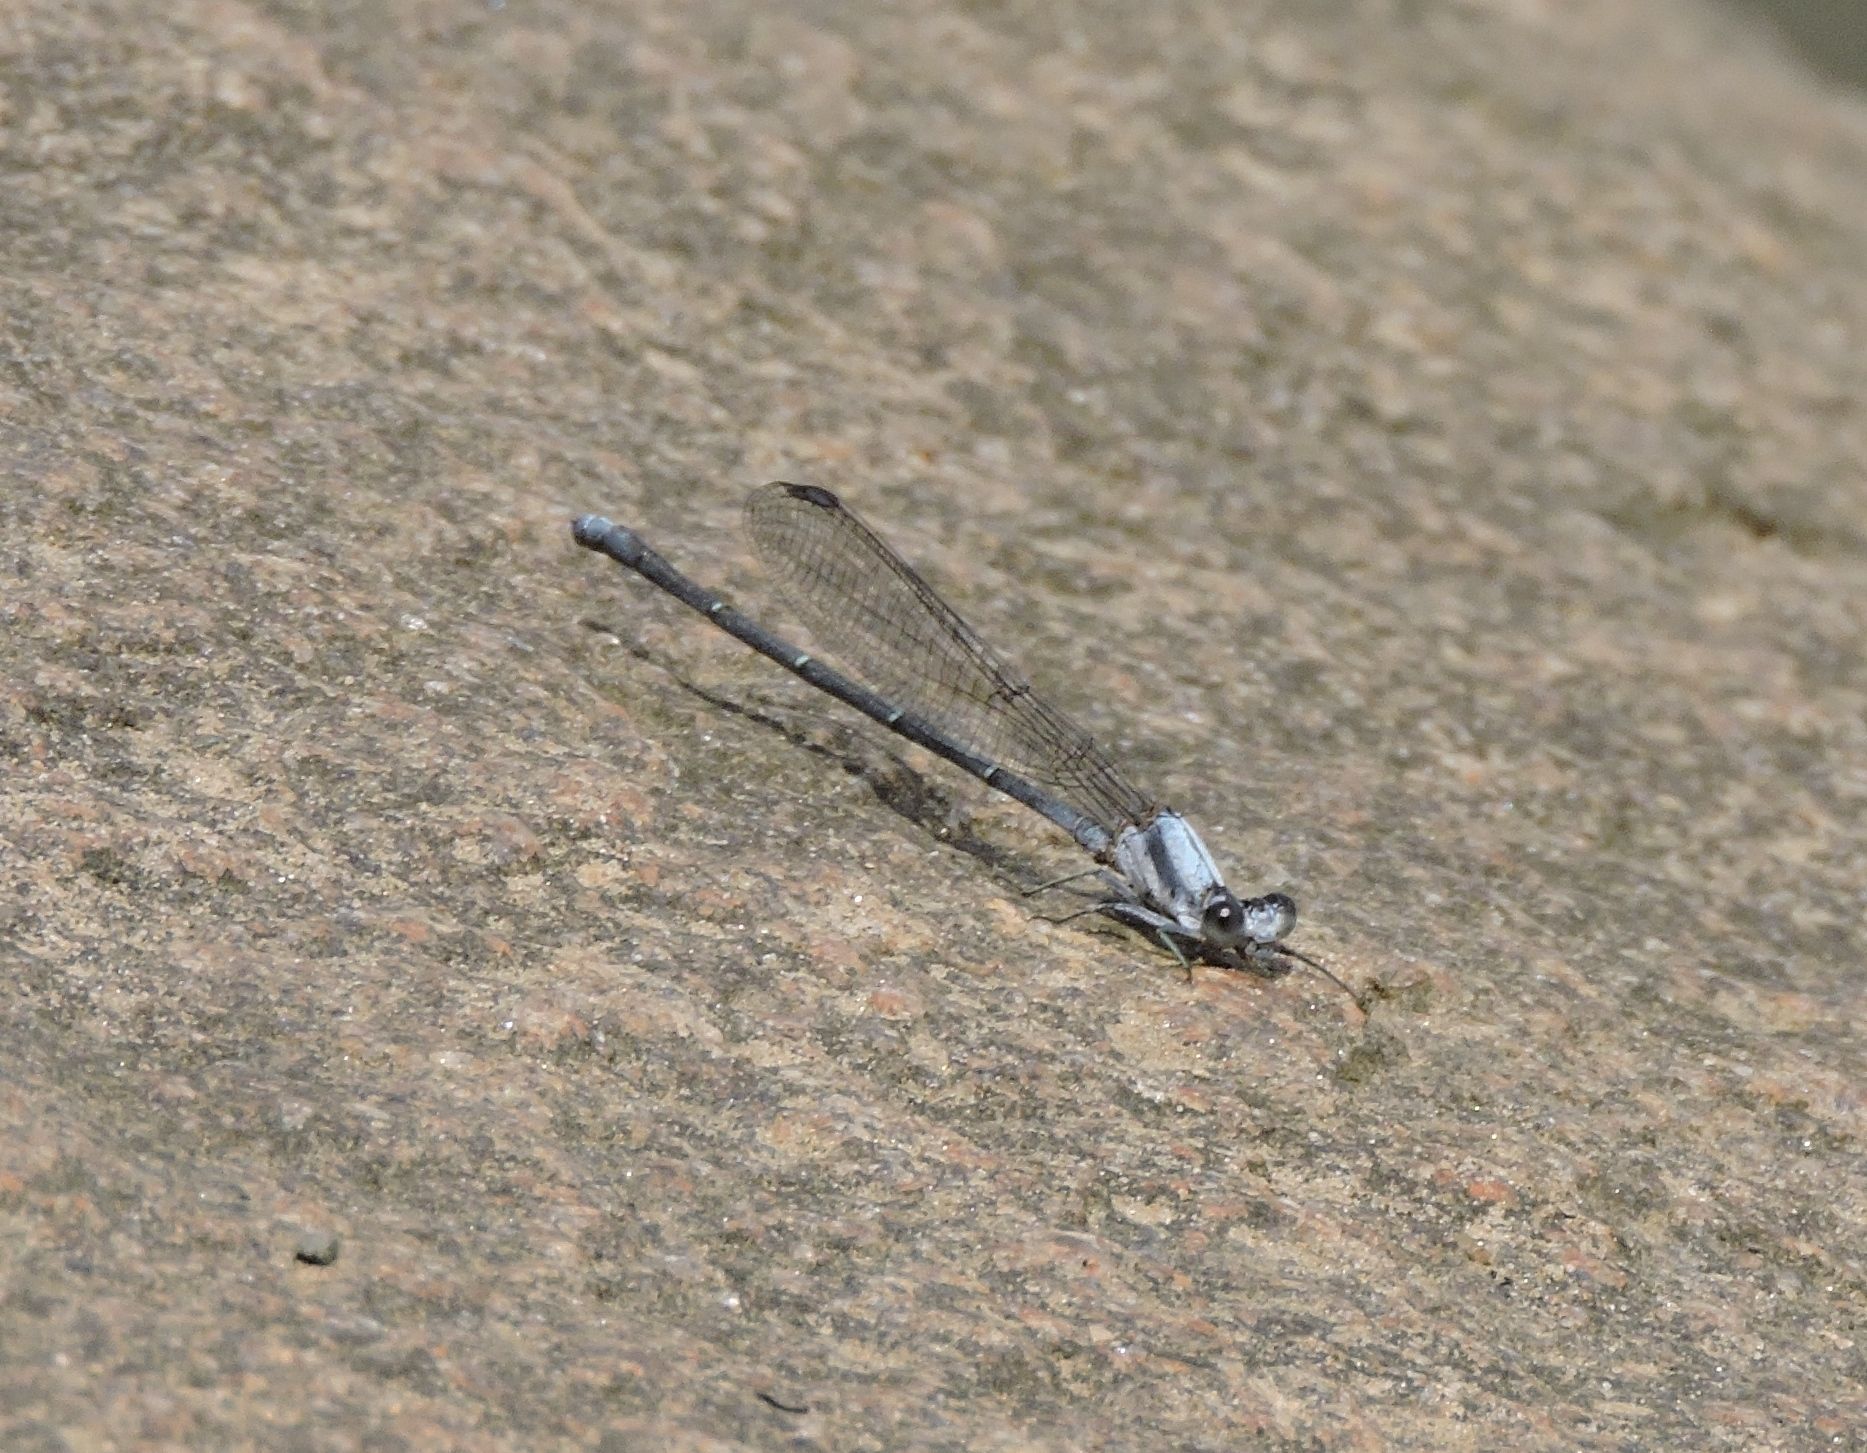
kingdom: Animalia
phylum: Arthropoda
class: Insecta
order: Odonata
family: Coenagrionidae
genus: Argia
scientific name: Argia moesta
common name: Powdered dancer
